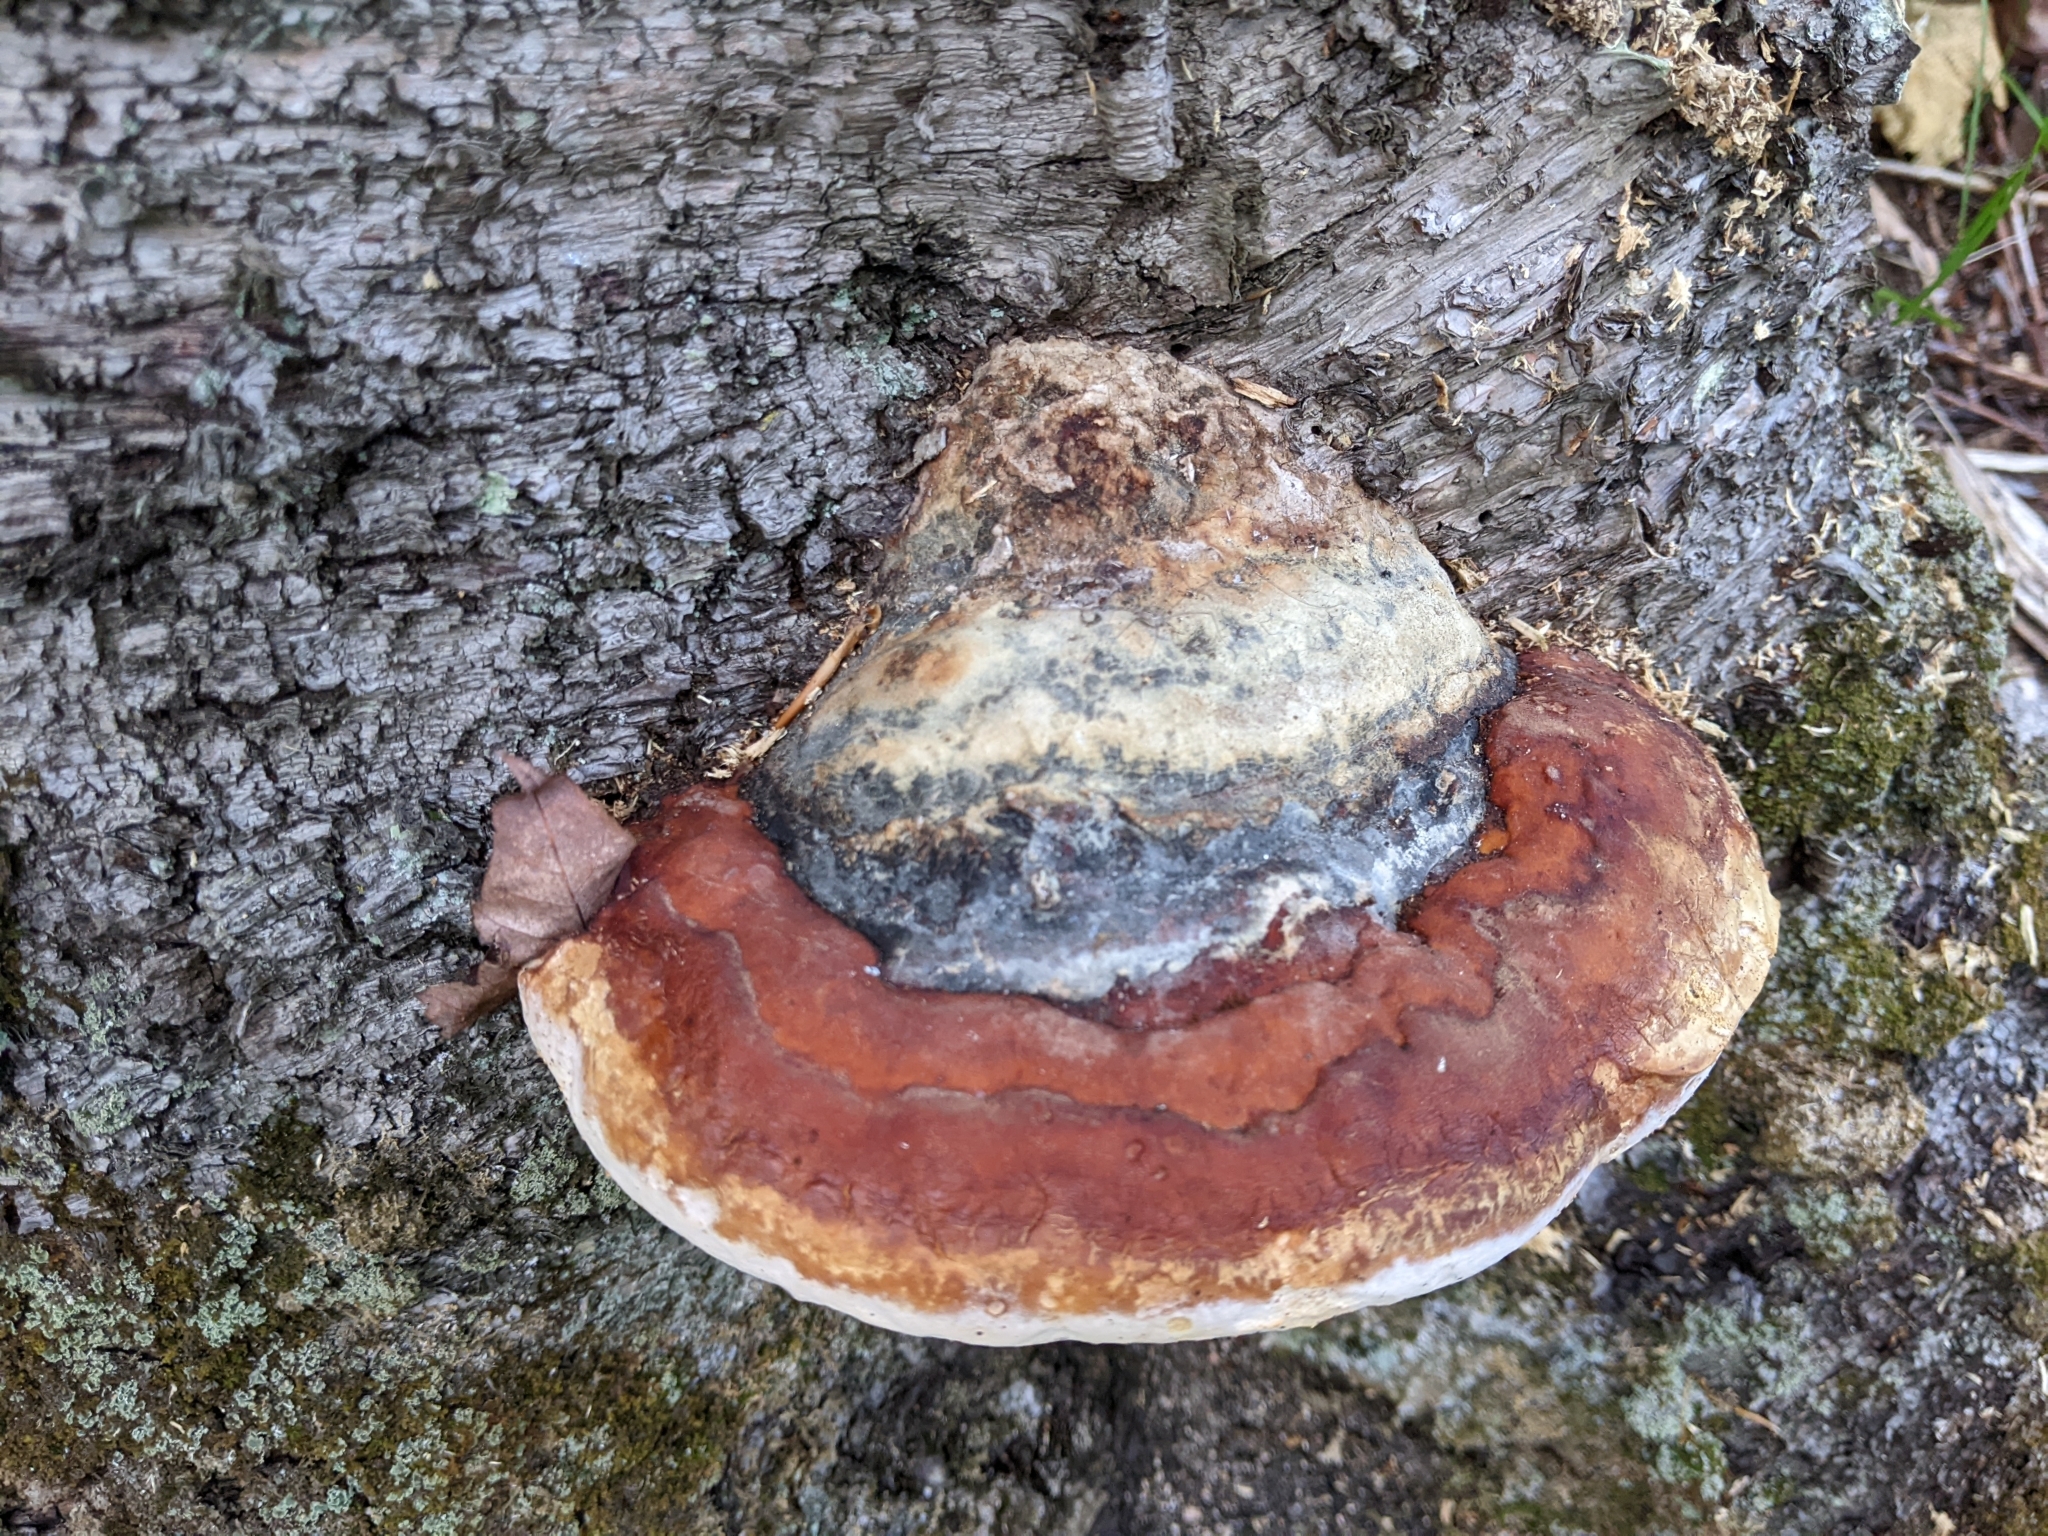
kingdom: Fungi
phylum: Basidiomycota
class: Agaricomycetes
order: Polyporales
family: Fomitopsidaceae
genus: Fomitopsis
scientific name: Fomitopsis mounceae
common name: Northern red belt
